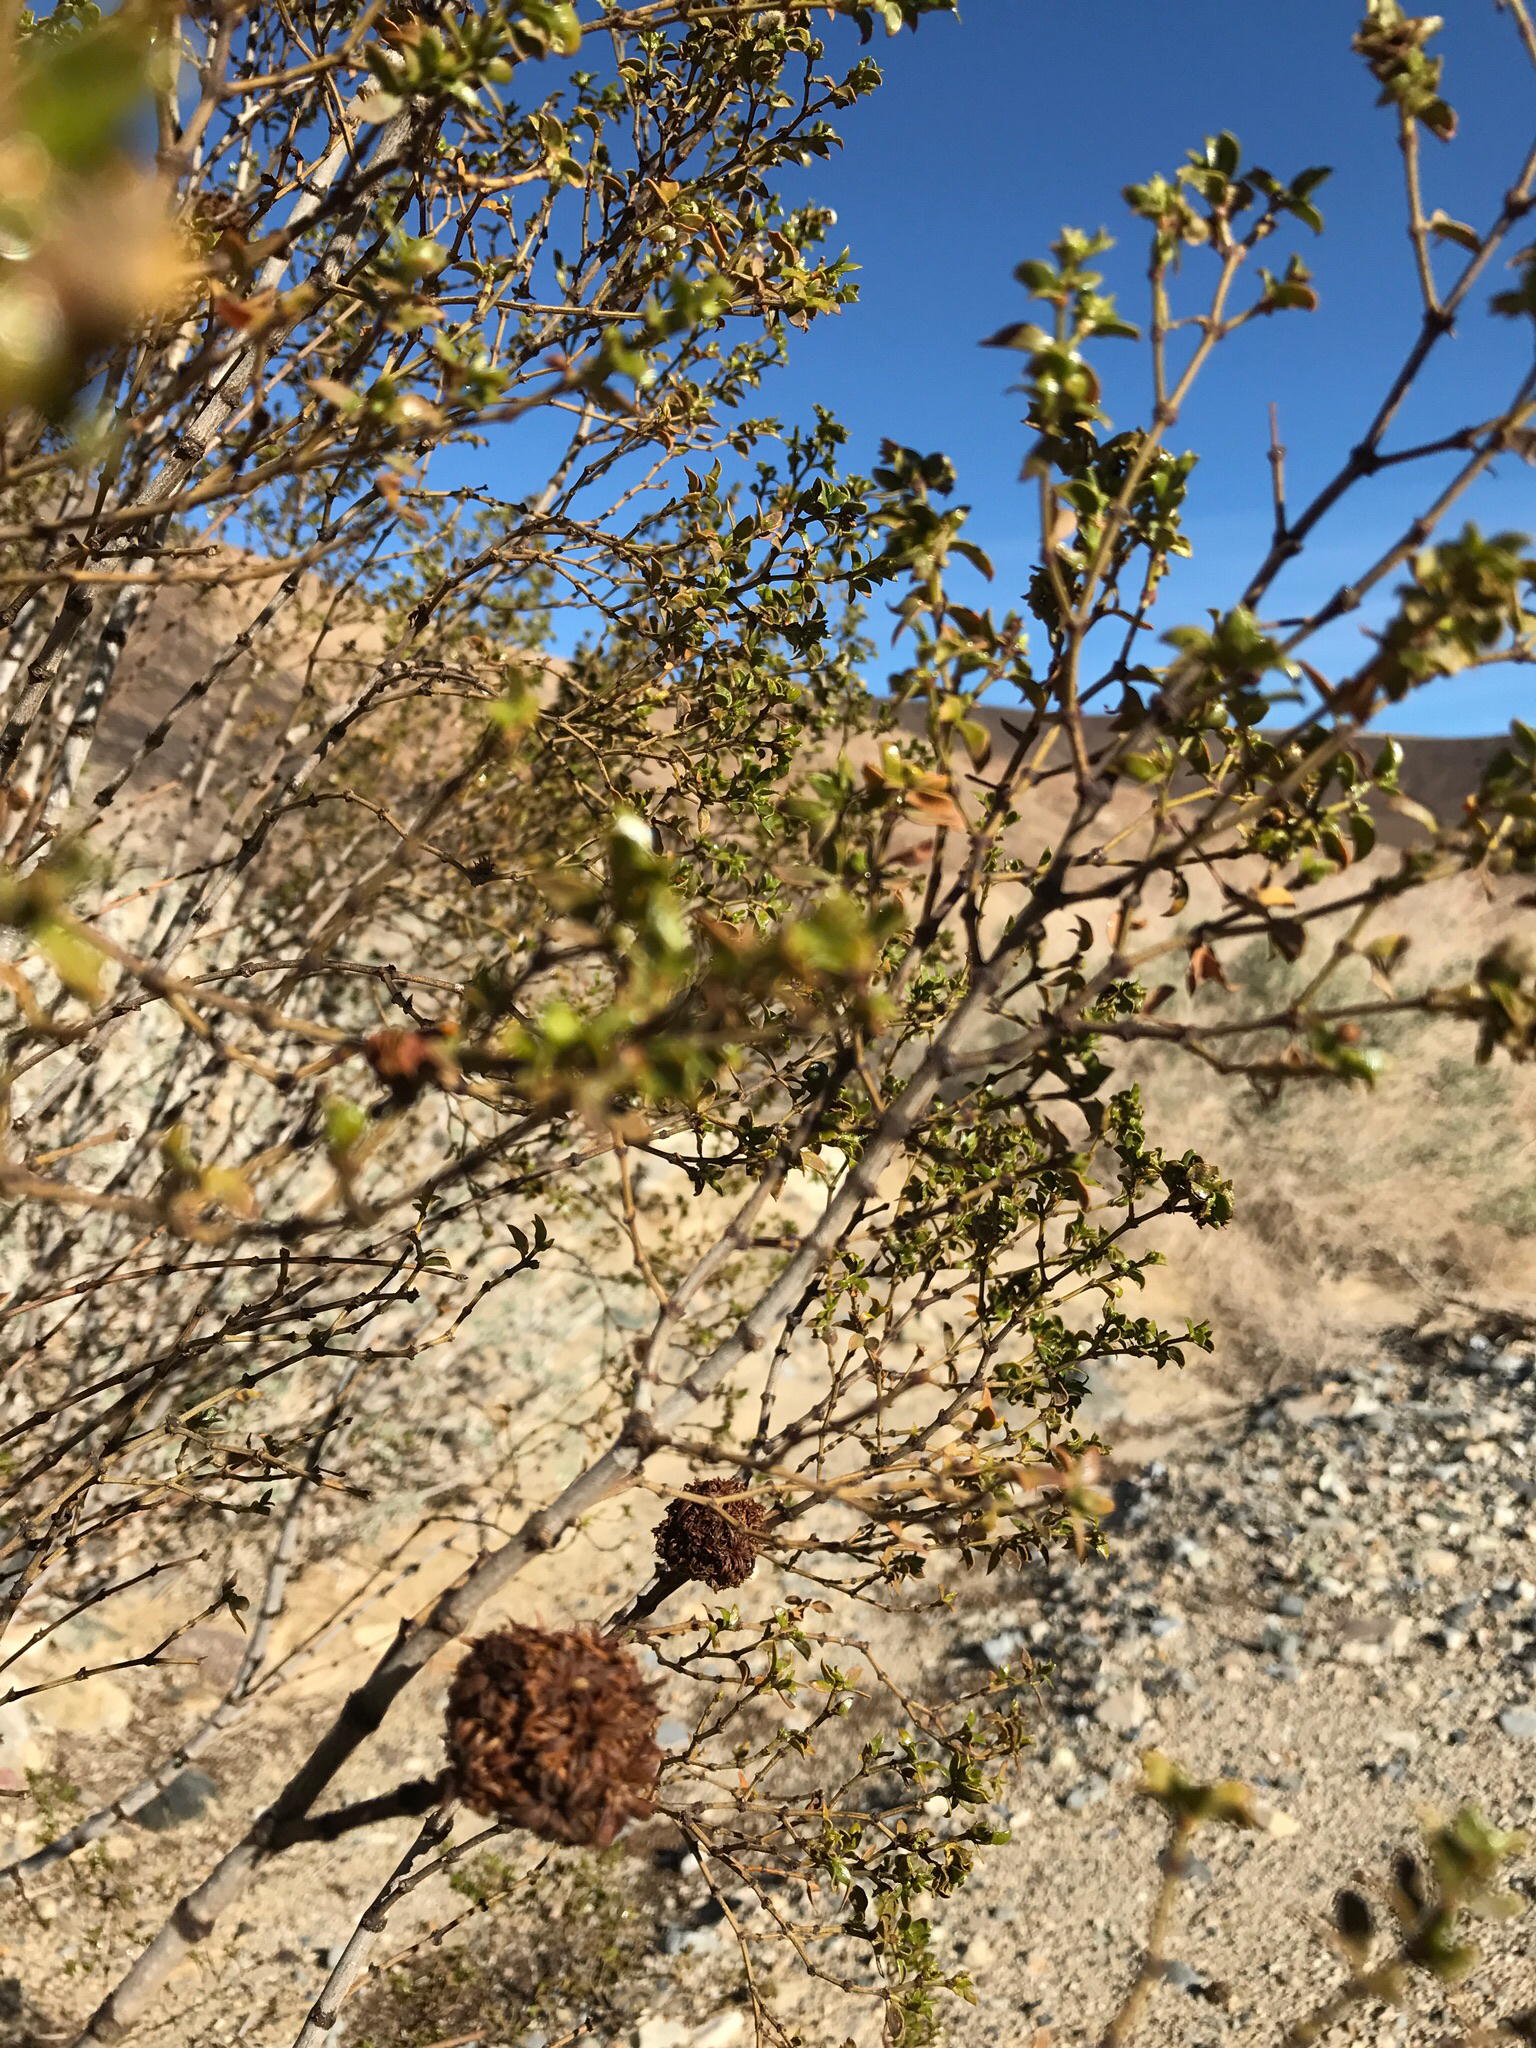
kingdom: Plantae
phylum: Tracheophyta
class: Magnoliopsida
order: Zygophyllales
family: Zygophyllaceae
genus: Larrea
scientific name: Larrea tridentata
